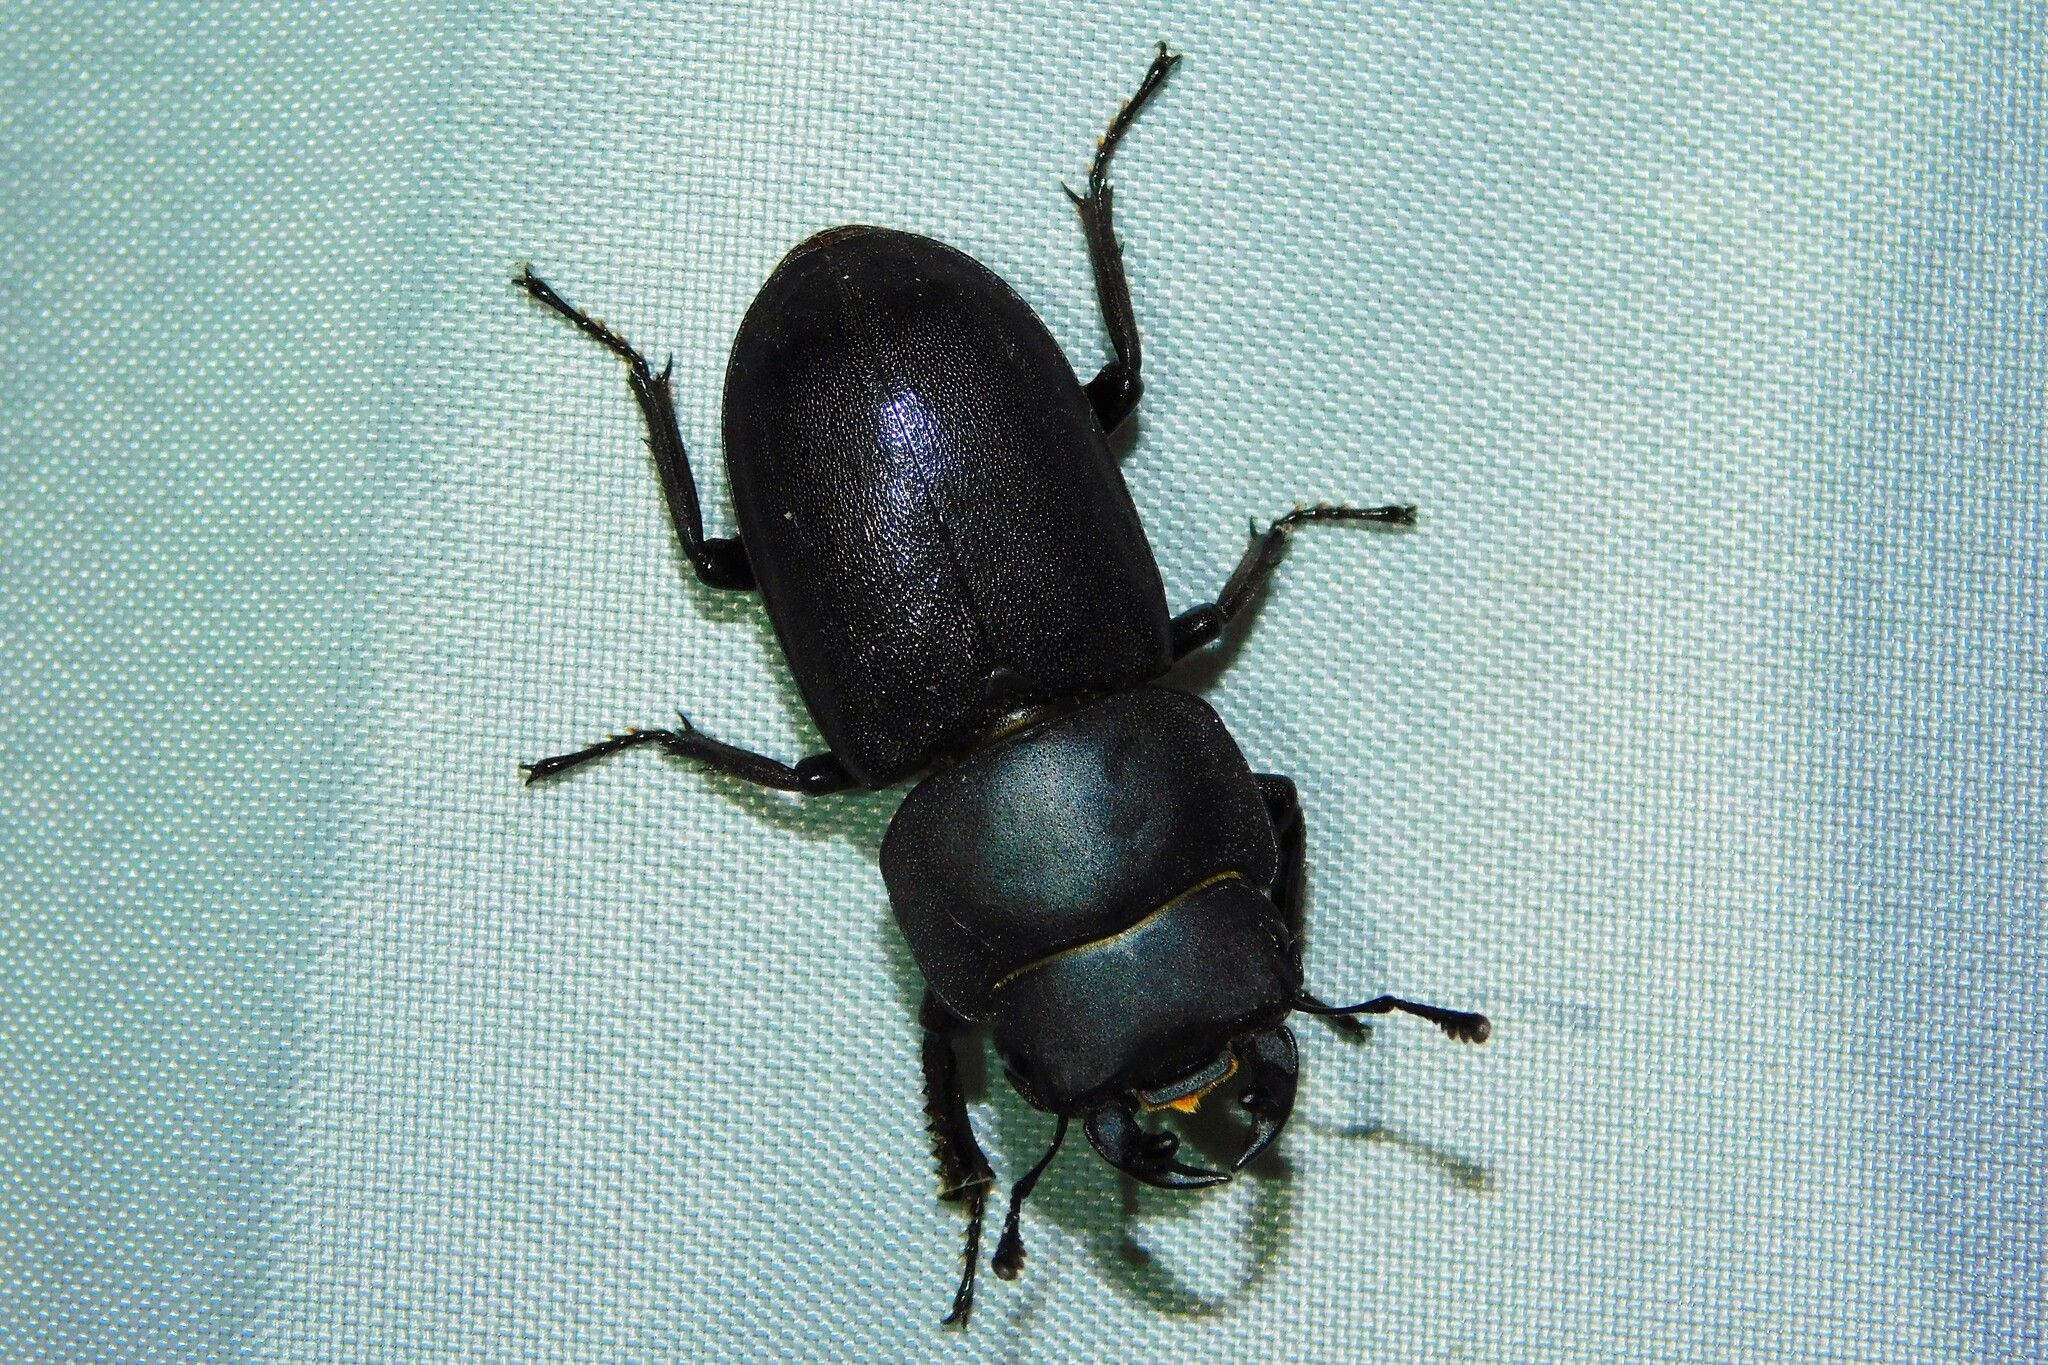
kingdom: Animalia
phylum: Arthropoda
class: Insecta
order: Coleoptera
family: Lucanidae
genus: Dorcus
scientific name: Dorcus parallelipipedus
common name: Lesser stag beetle
